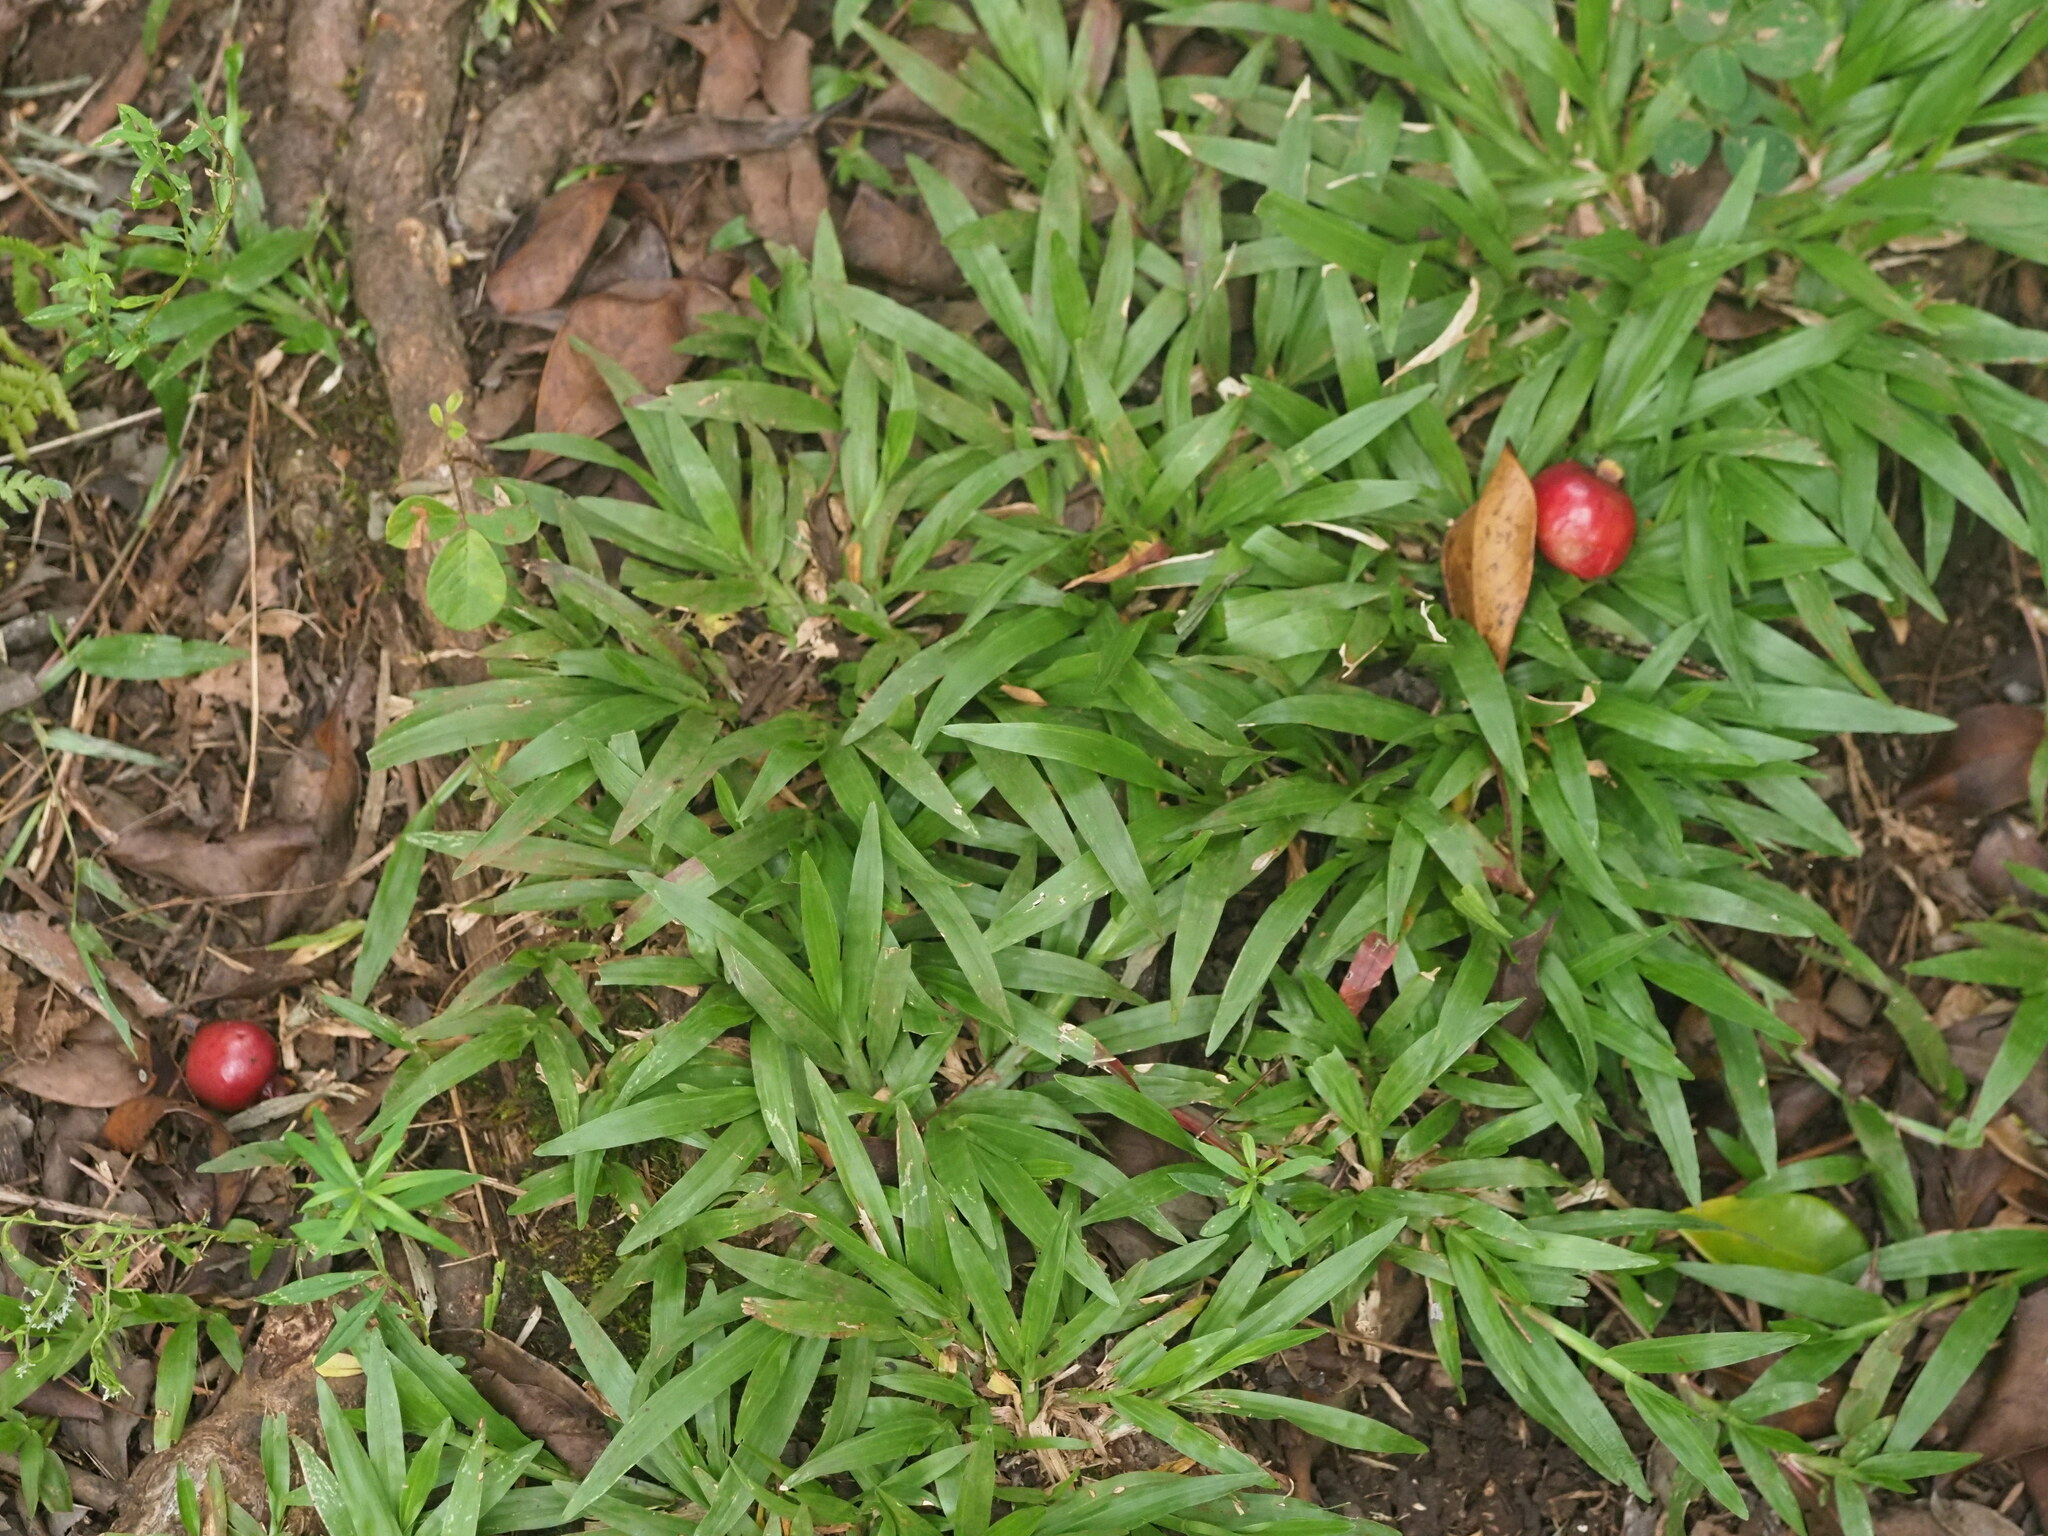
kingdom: Plantae
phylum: Tracheophyta
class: Liliopsida
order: Poales
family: Poaceae
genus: Axonopus
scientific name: Axonopus compressus
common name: American carpet grass
